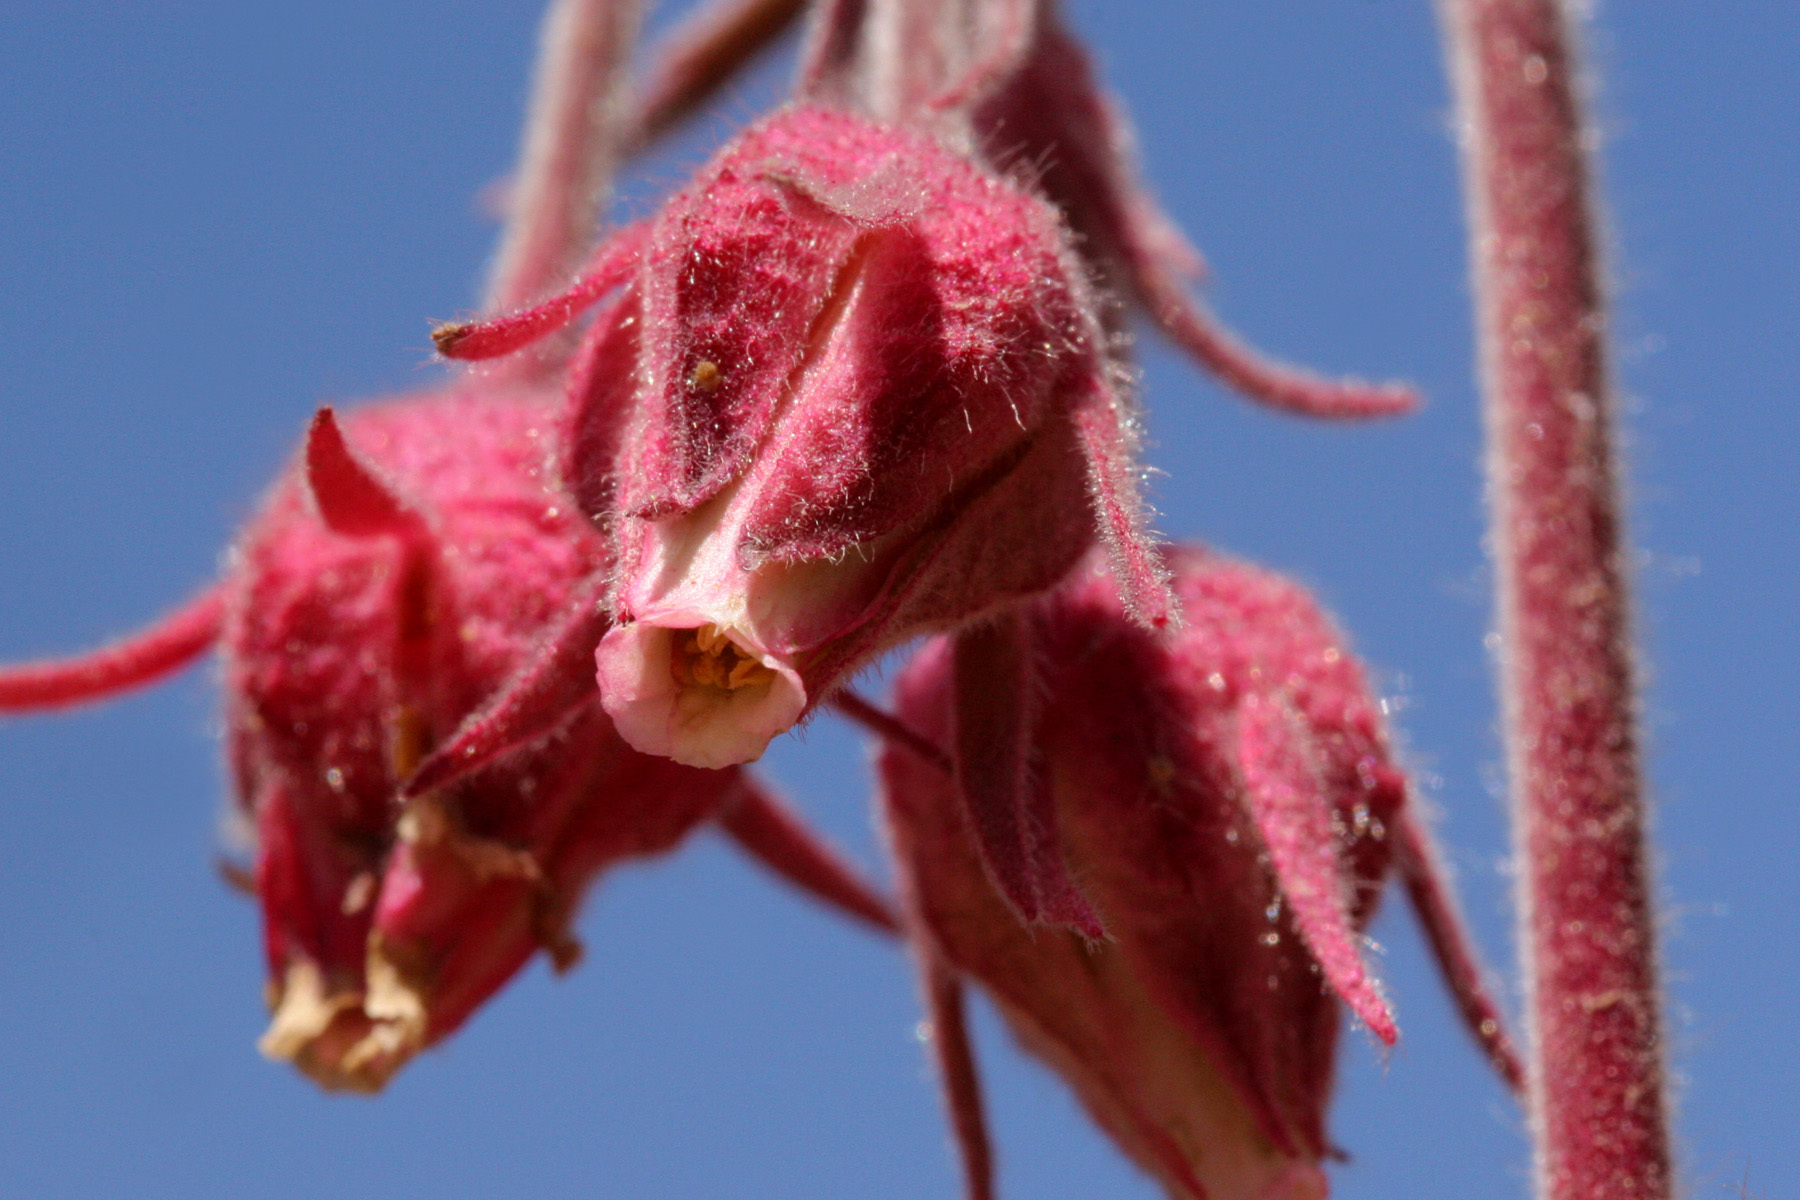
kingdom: Plantae
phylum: Tracheophyta
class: Magnoliopsida
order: Rosales
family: Rosaceae
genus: Geum
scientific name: Geum triflorum
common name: Old man's whiskers
